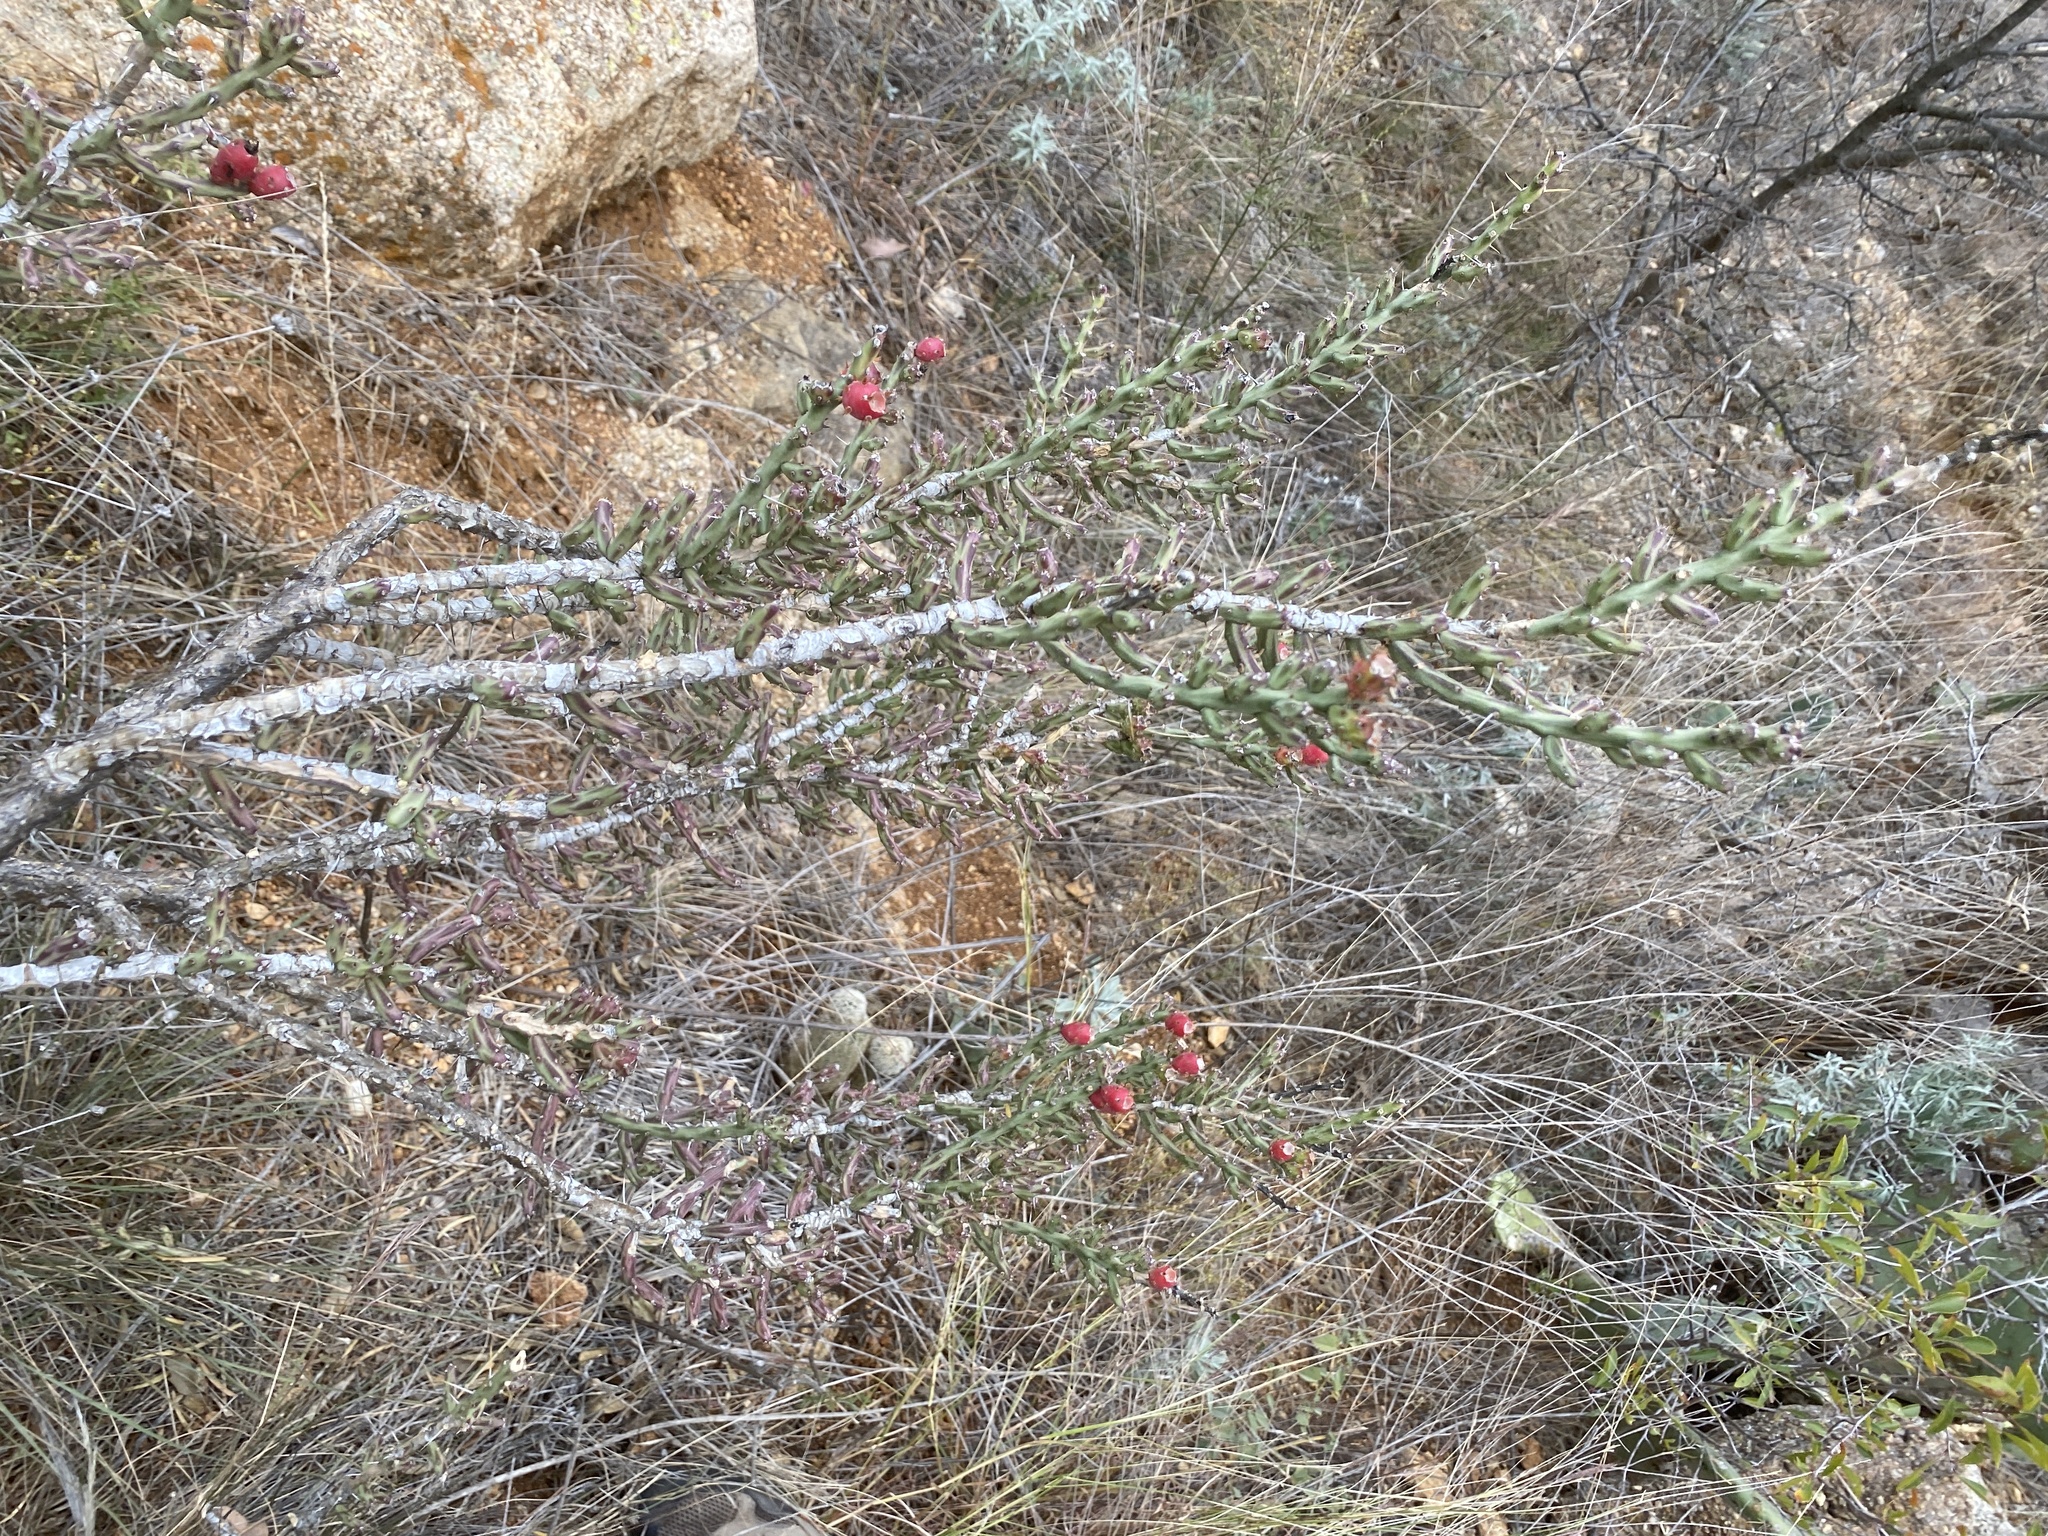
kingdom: Plantae
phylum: Tracheophyta
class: Magnoliopsida
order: Caryophyllales
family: Cactaceae
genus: Cylindropuntia
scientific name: Cylindropuntia leptocaulis
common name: Christmas cactus
